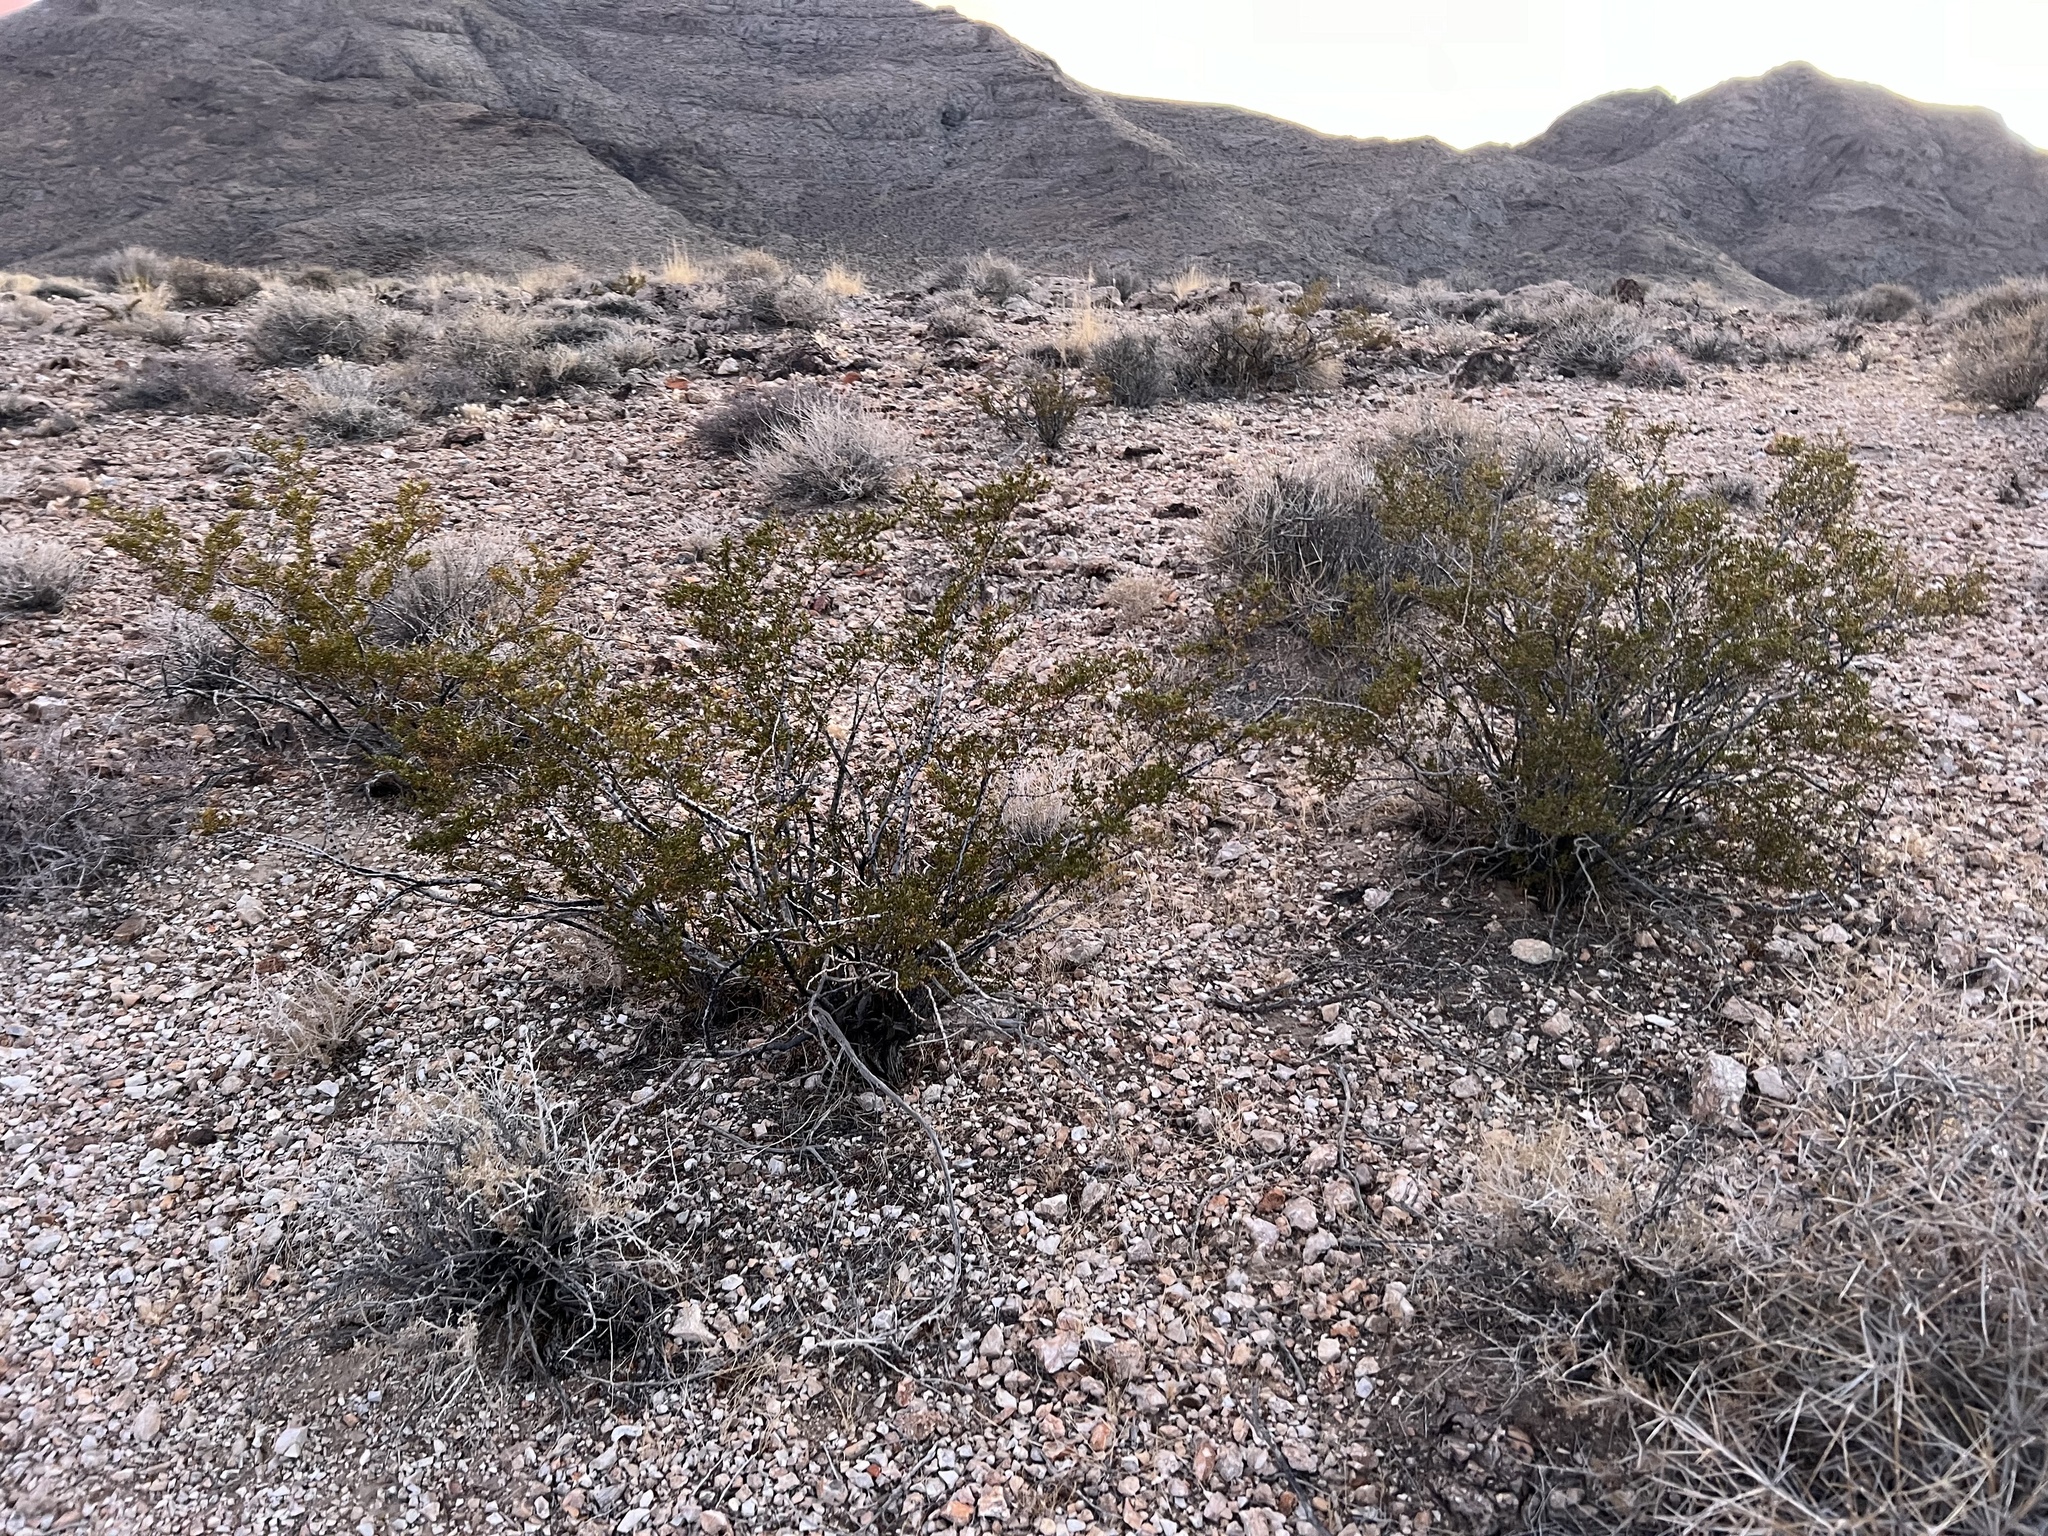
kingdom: Plantae
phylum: Tracheophyta
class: Magnoliopsida
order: Zygophyllales
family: Zygophyllaceae
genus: Larrea
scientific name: Larrea tridentata
